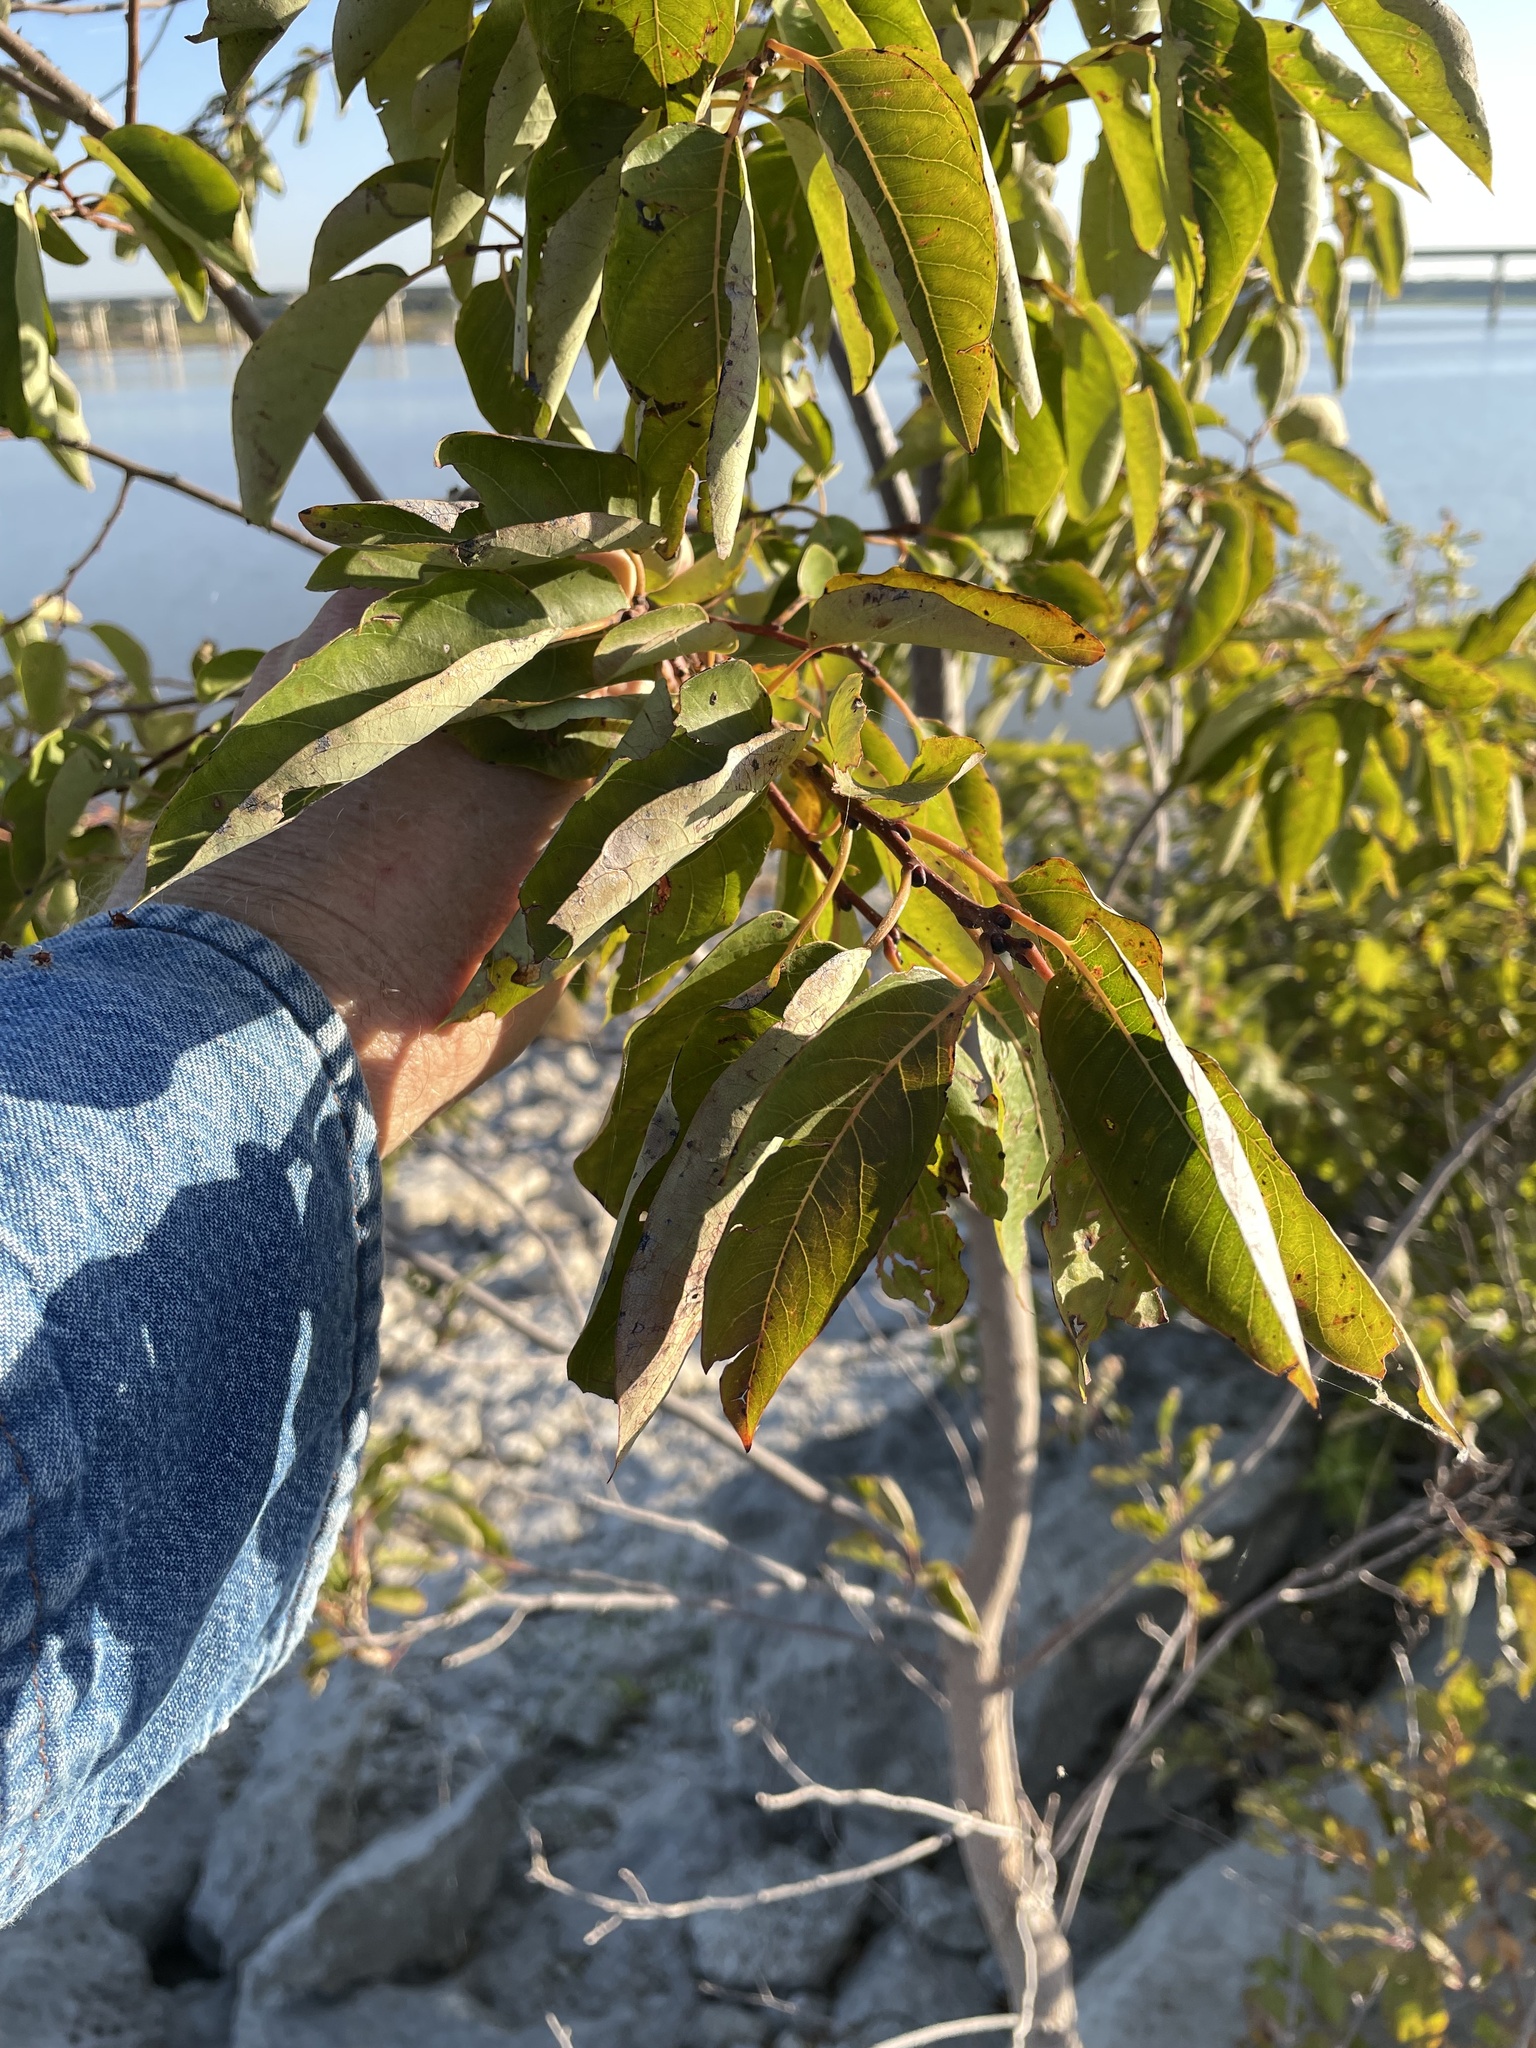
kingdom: Plantae
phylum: Tracheophyta
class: Magnoliopsida
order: Ericales
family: Ebenaceae
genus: Diospyros
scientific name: Diospyros virginiana
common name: Persimmon
